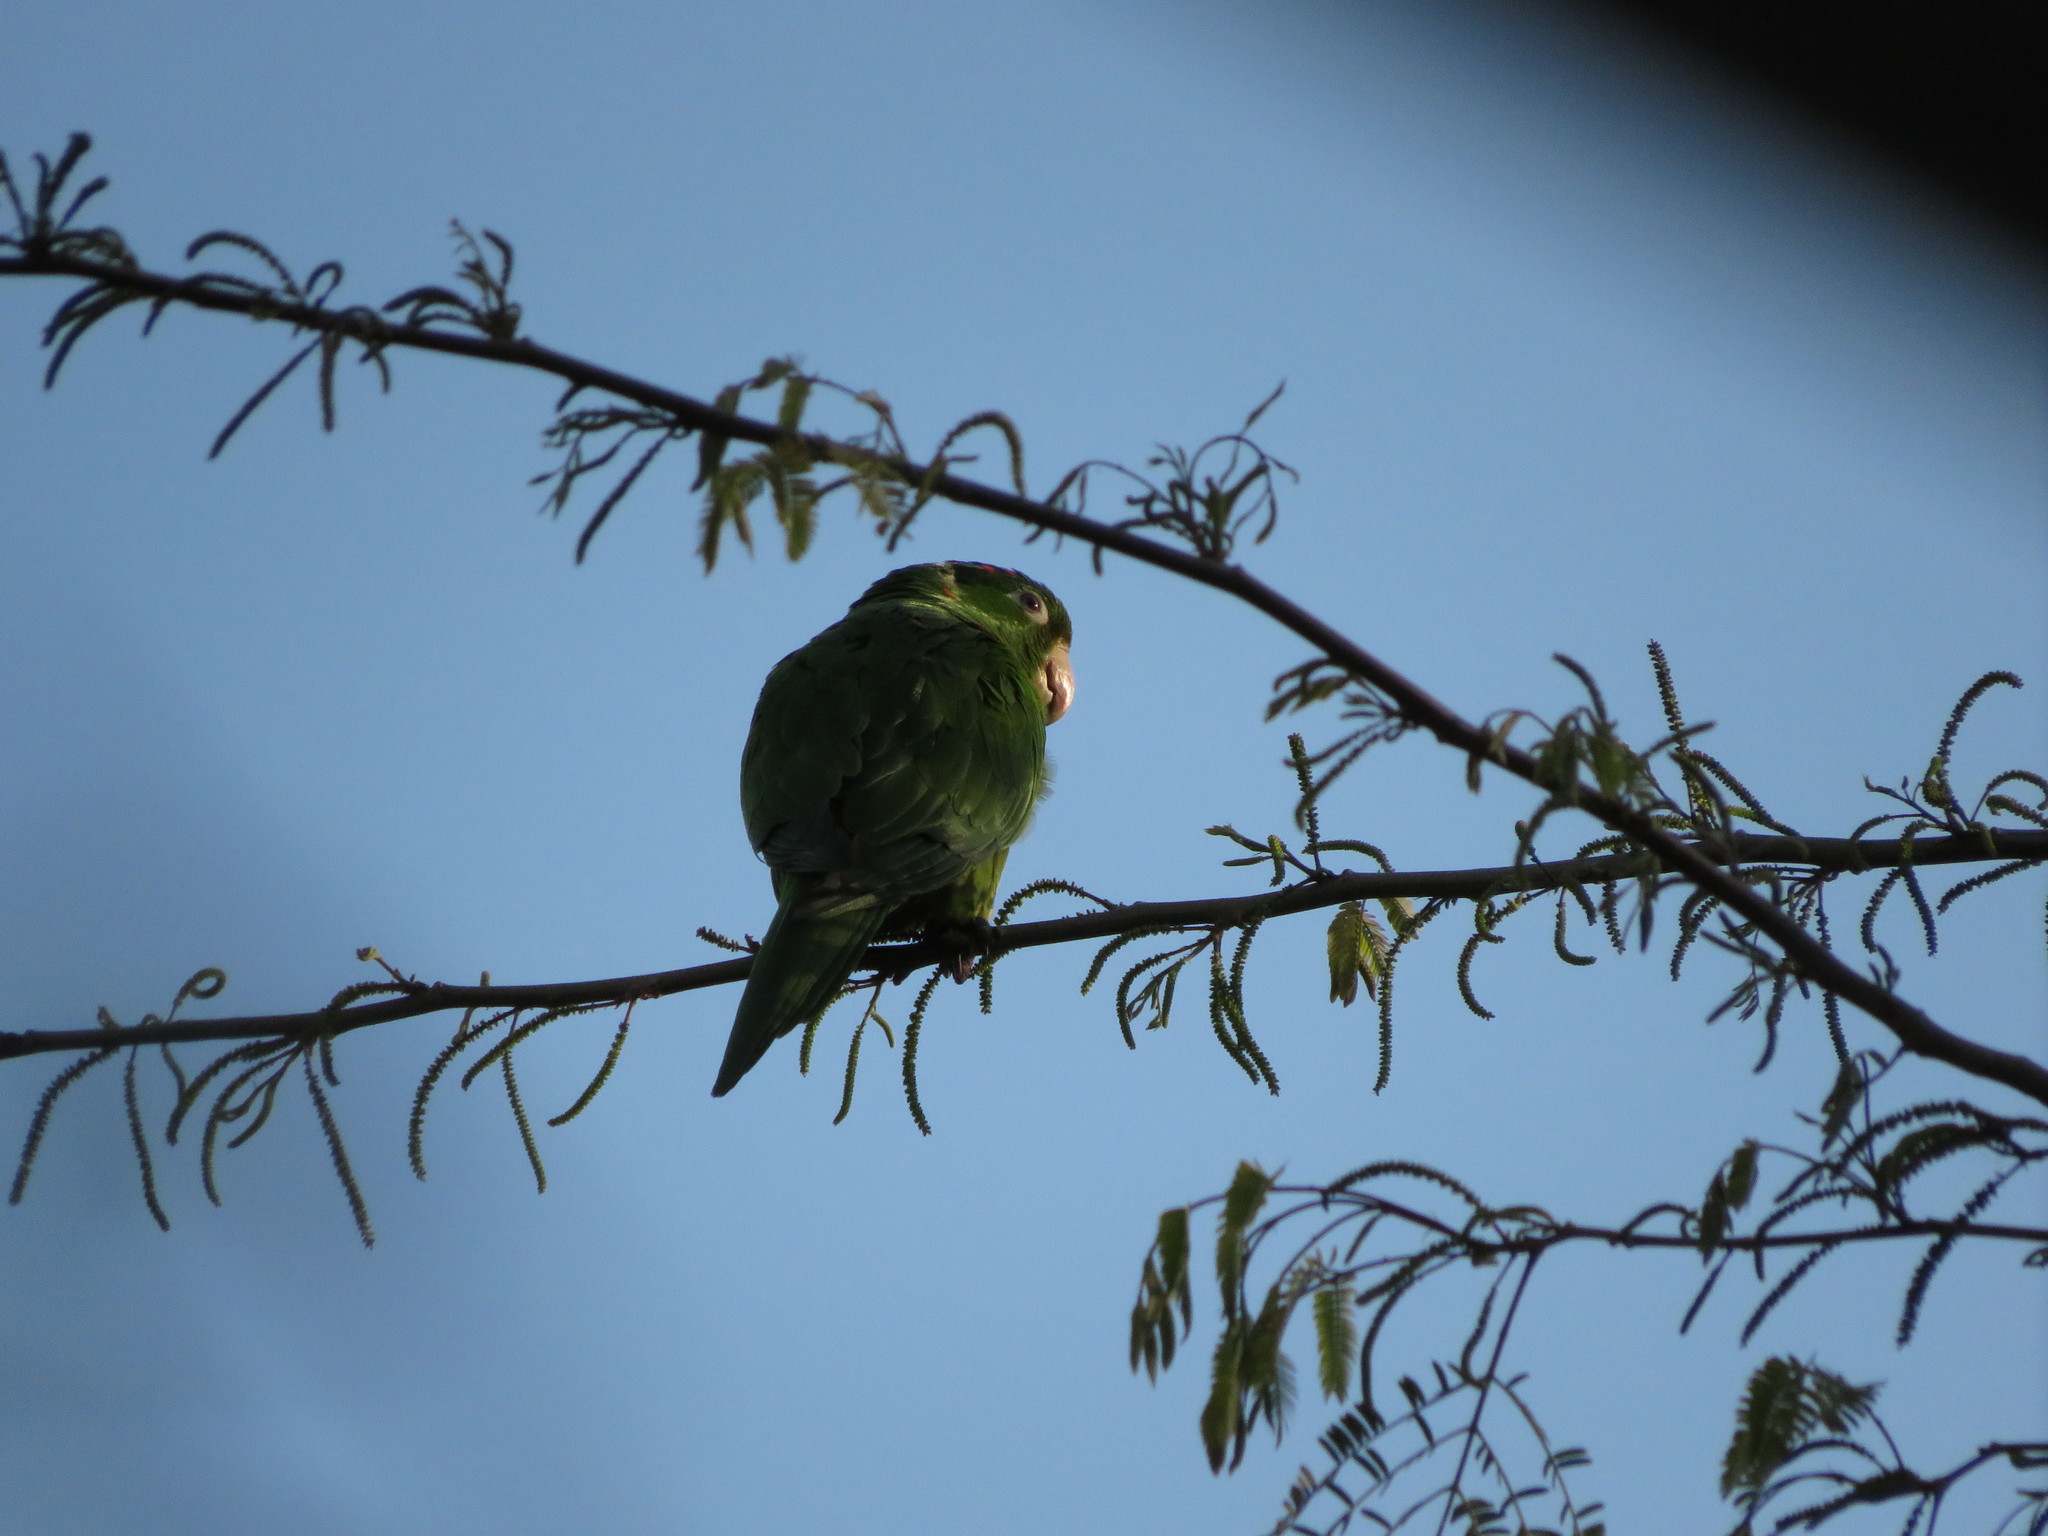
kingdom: Animalia
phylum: Chordata
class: Aves
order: Psittaciformes
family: Psittacidae
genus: Aratinga
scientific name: Aratinga leucophthalma
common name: White-eyed parakeet
